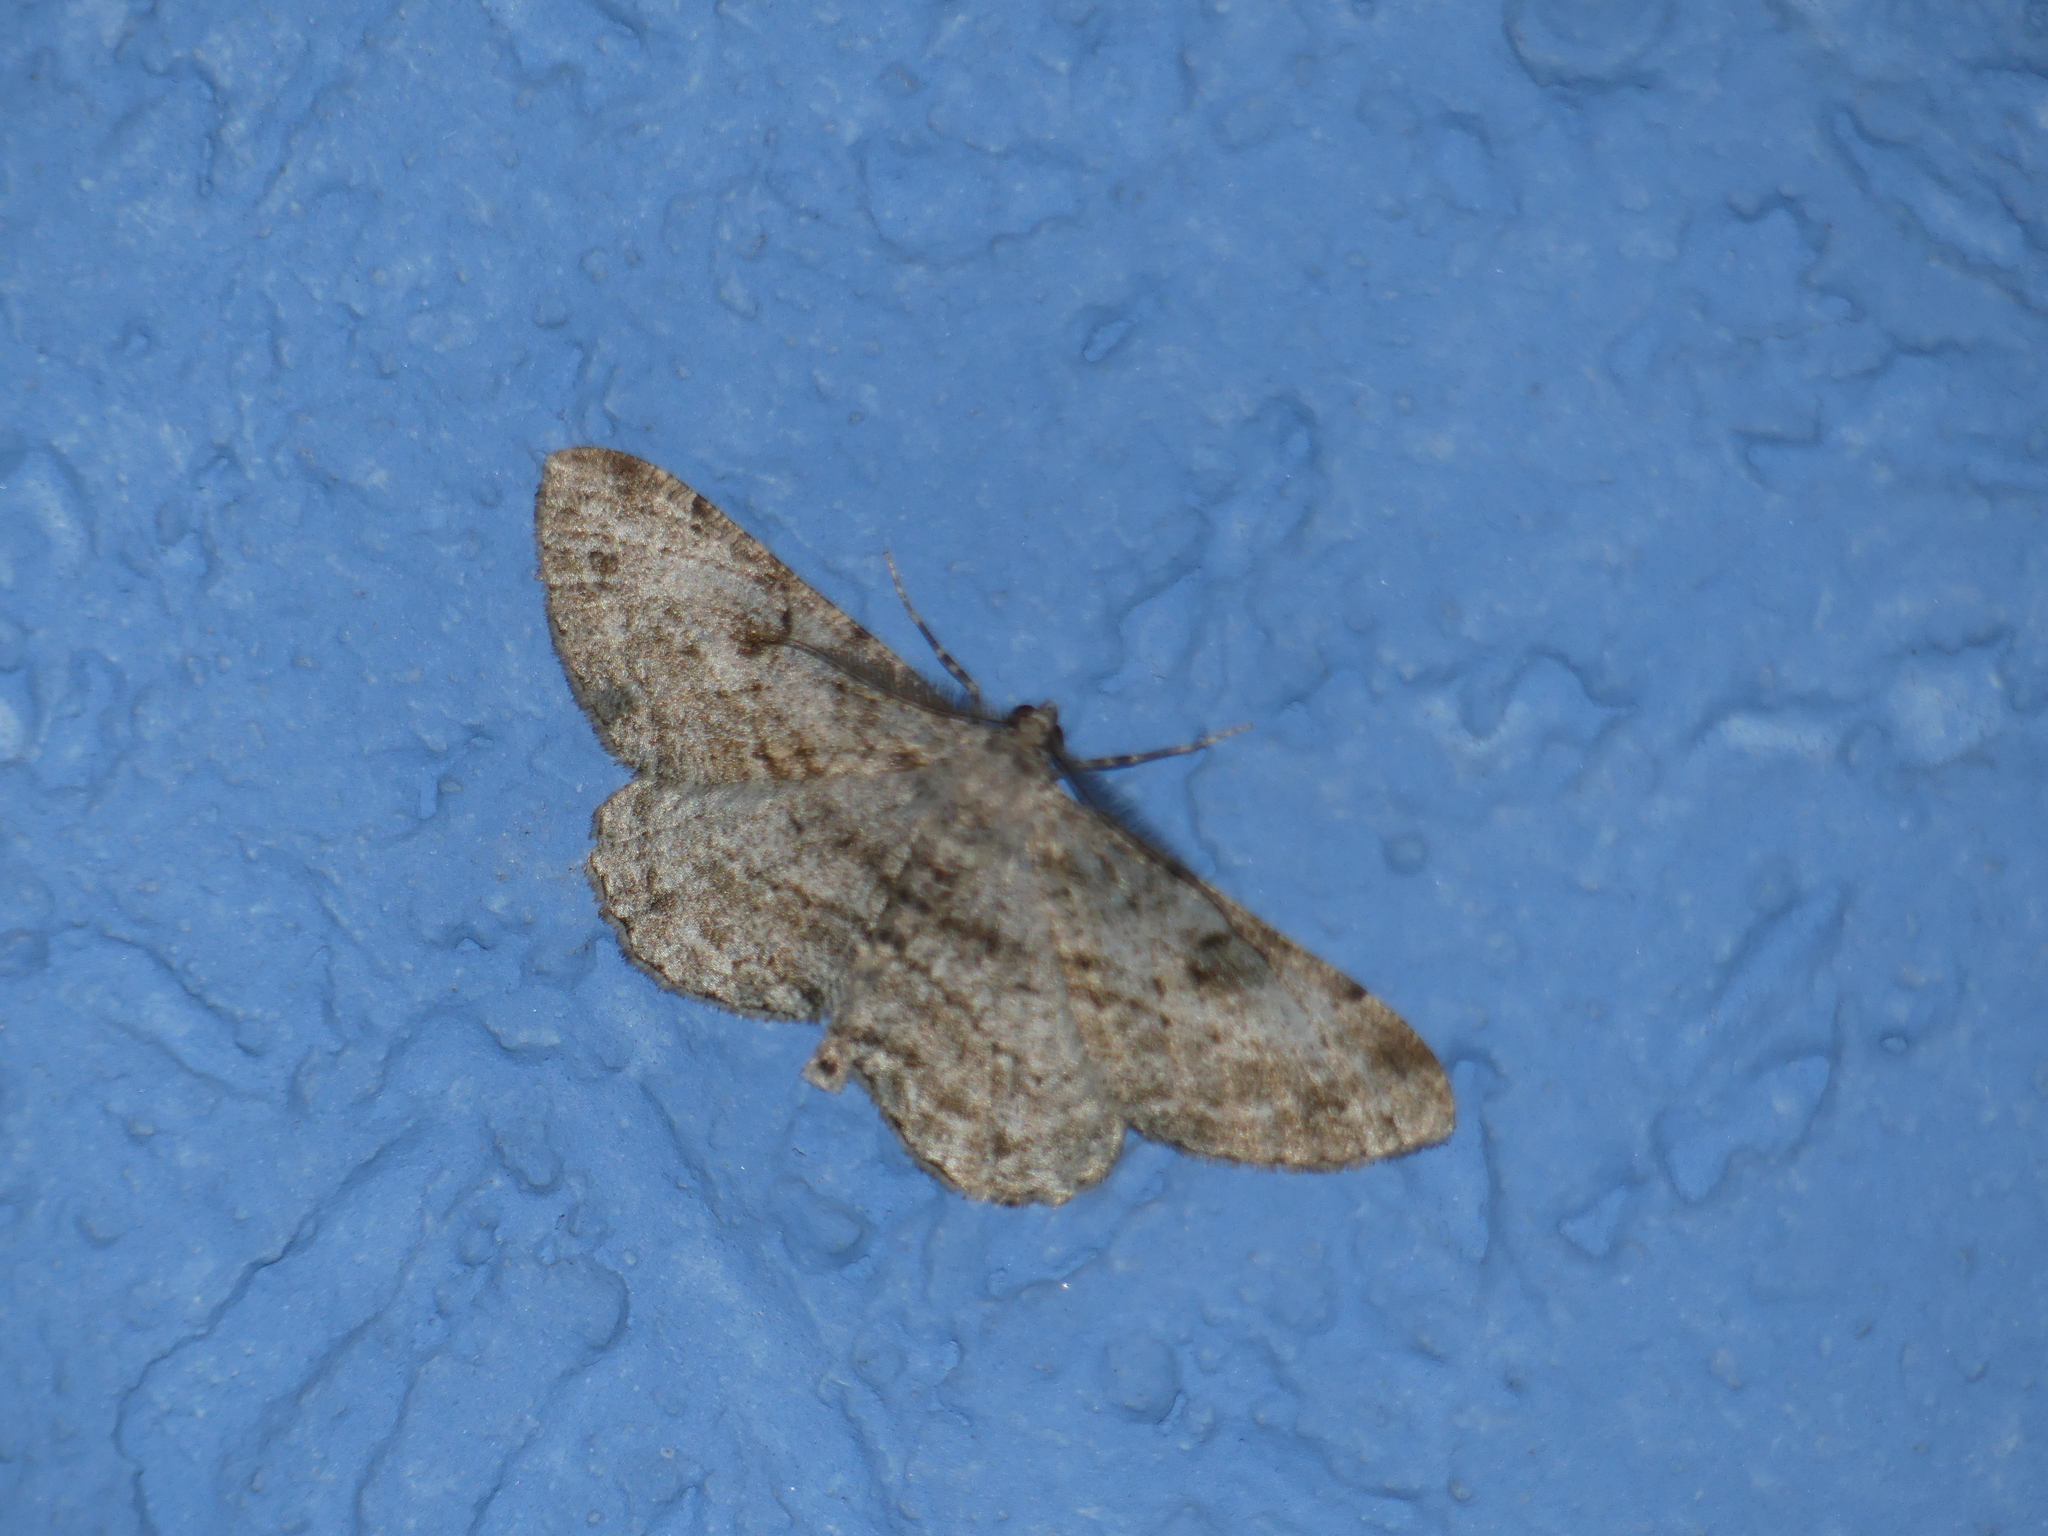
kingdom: Animalia
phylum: Arthropoda
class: Insecta
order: Lepidoptera
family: Geometridae
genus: Peribatodes
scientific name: Peribatodes rhomboidaria
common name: Willow beauty
